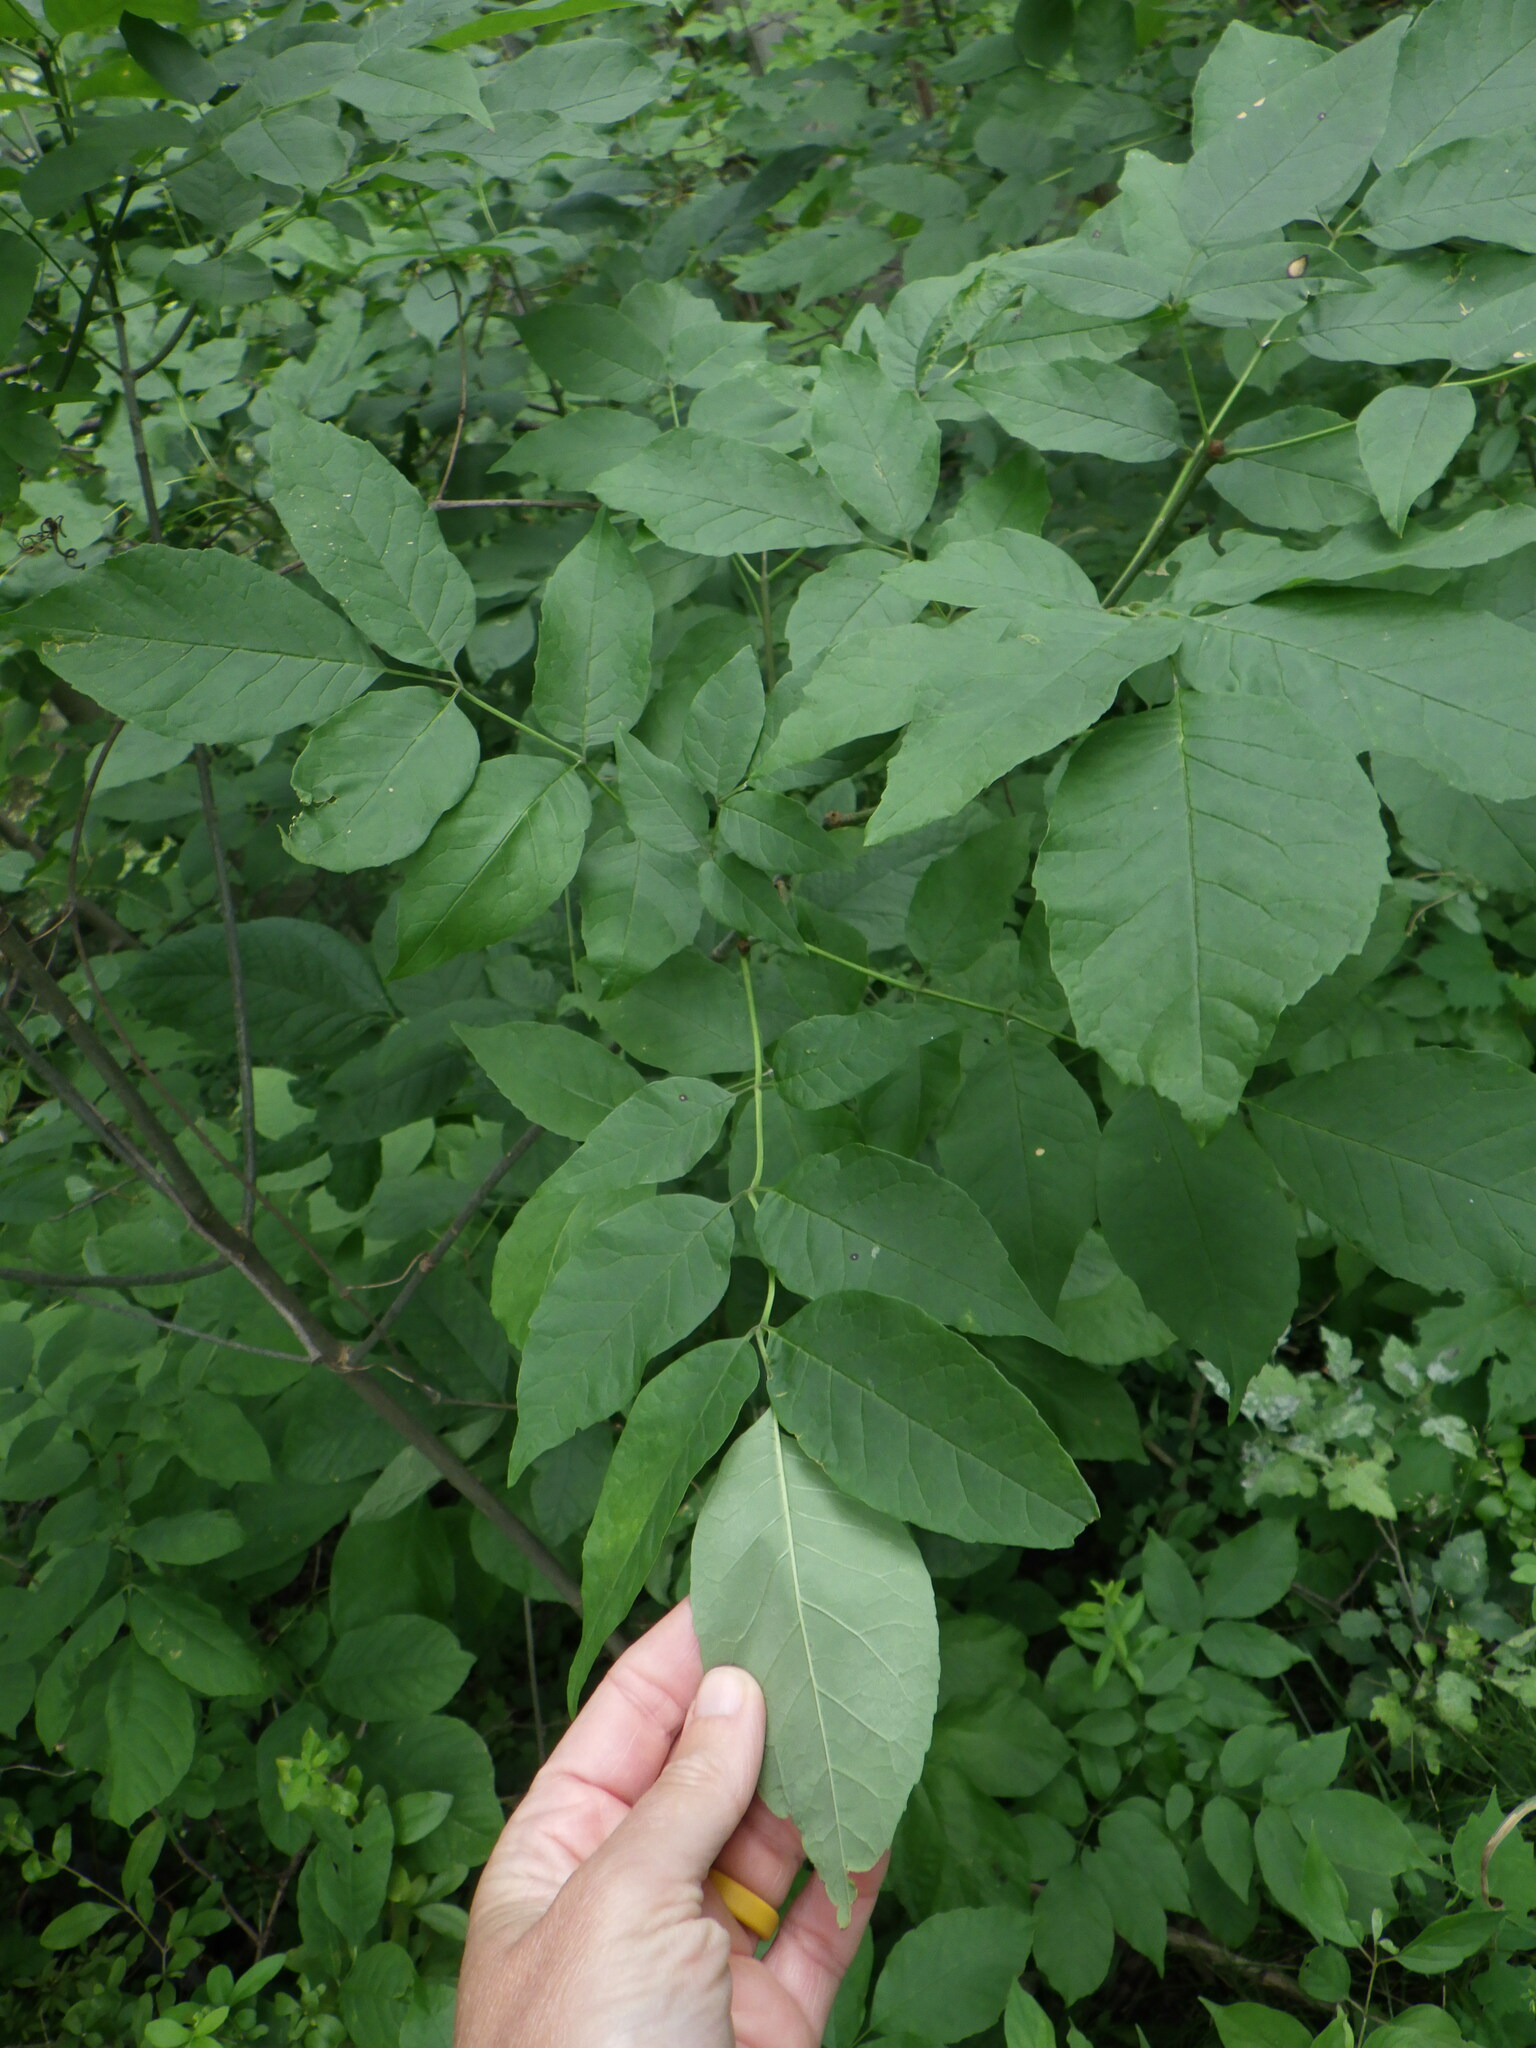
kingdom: Plantae
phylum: Tracheophyta
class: Magnoliopsida
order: Lamiales
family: Oleaceae
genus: Fraxinus
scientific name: Fraxinus pennsylvanica
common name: Green ash
